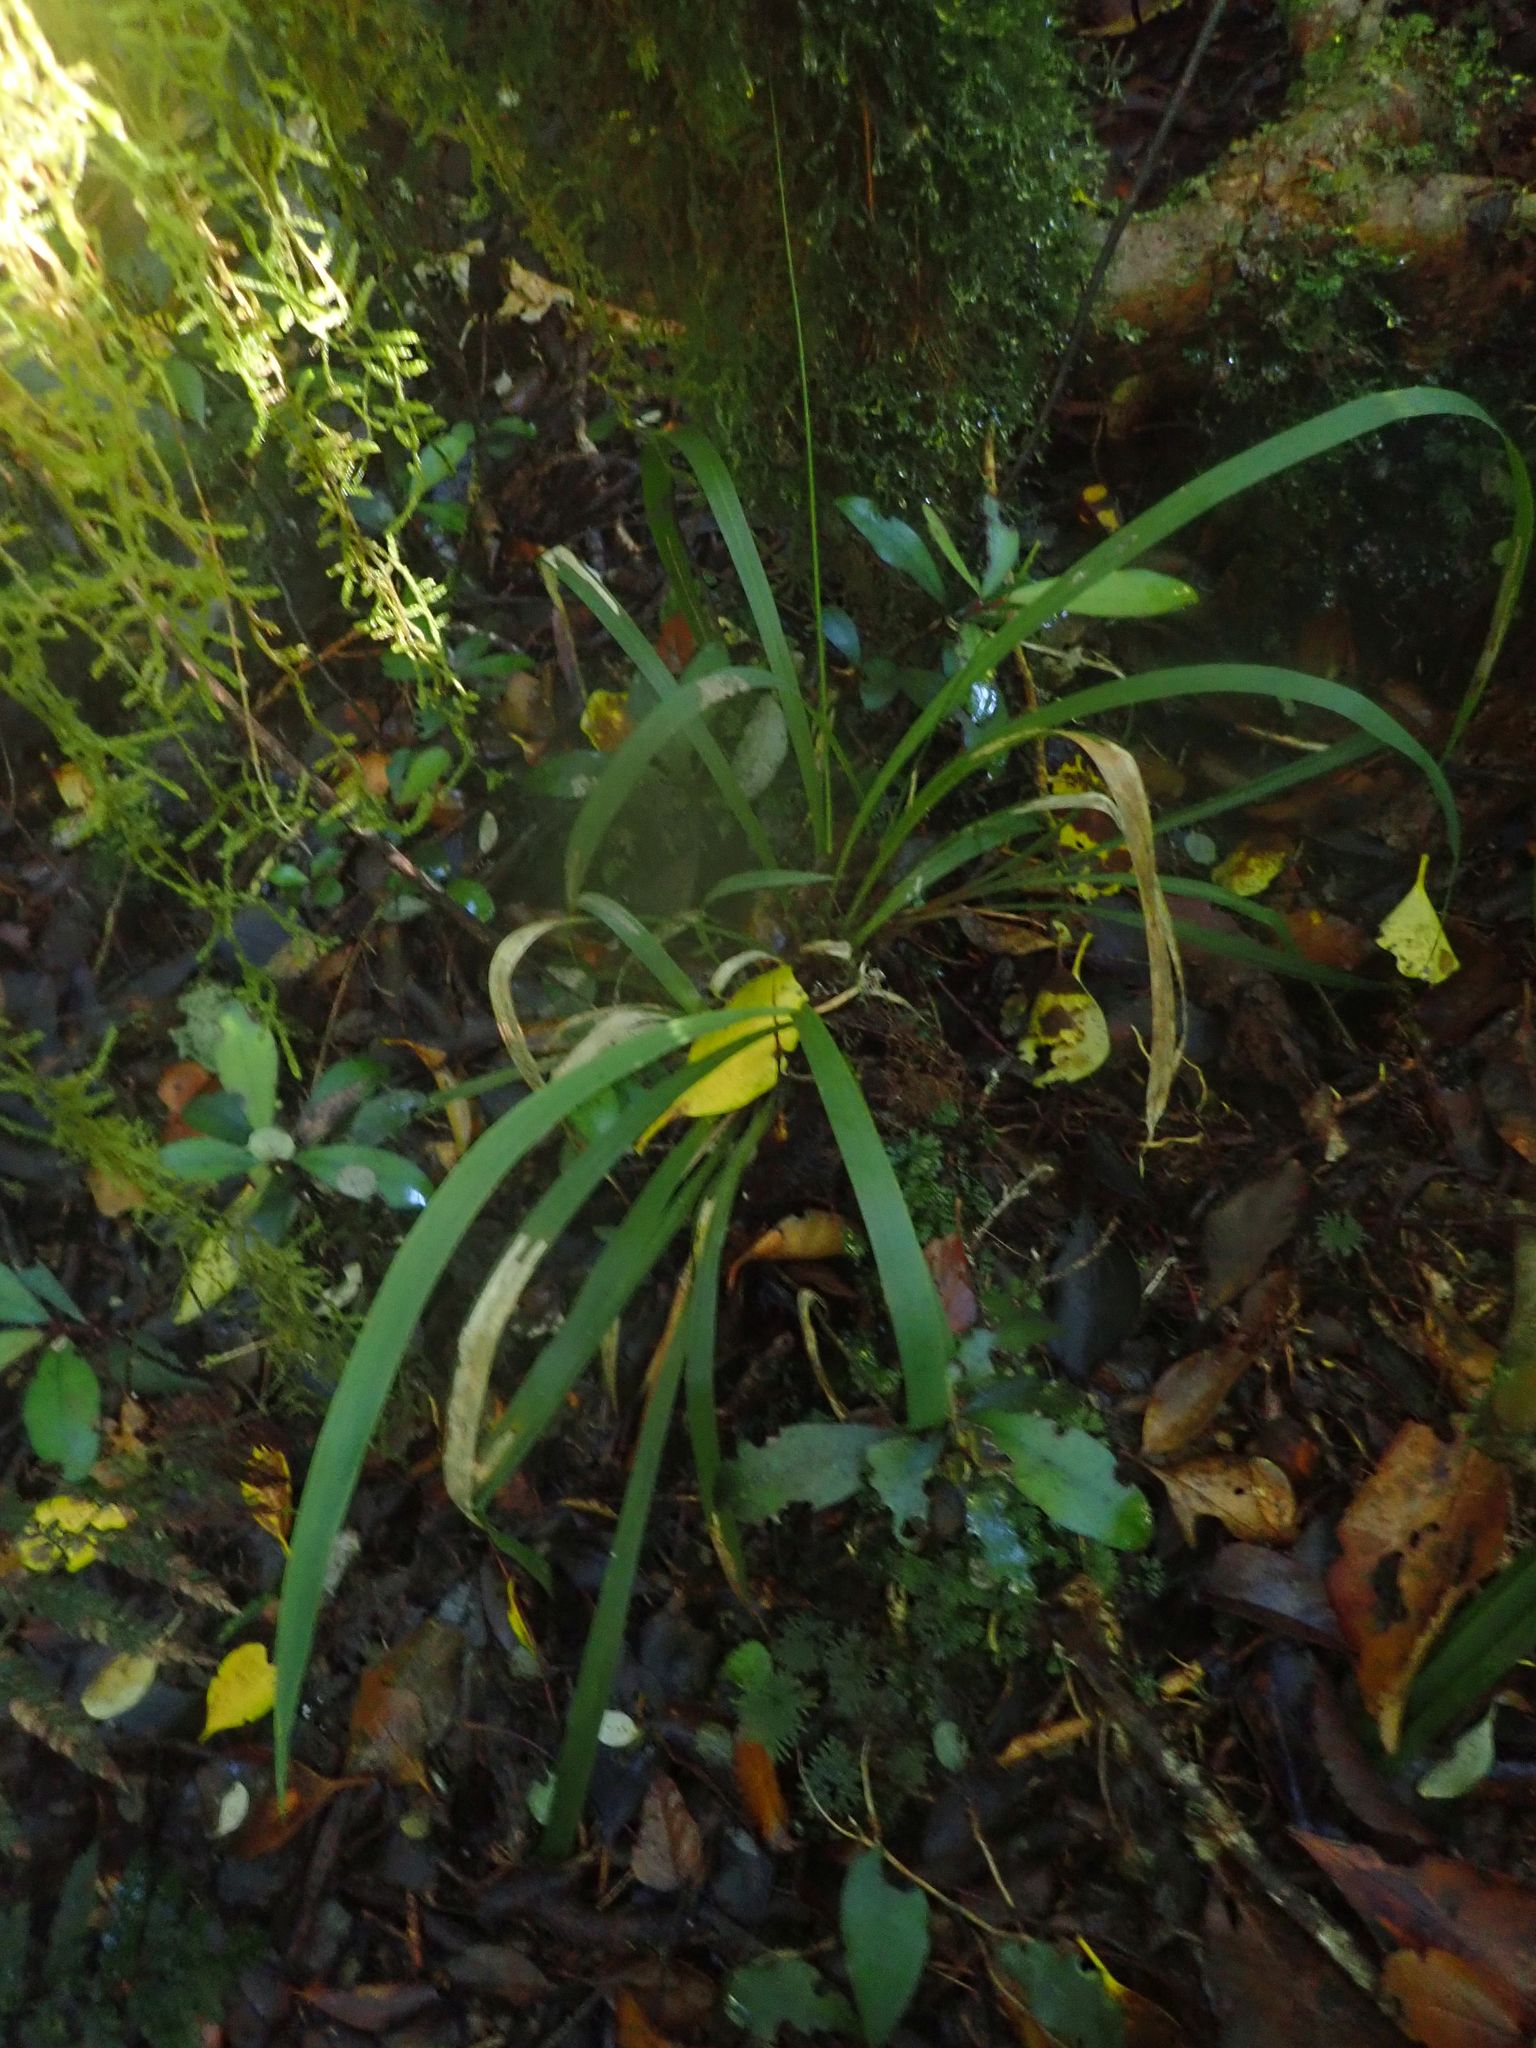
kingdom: Plantae
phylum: Tracheophyta
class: Liliopsida
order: Poales
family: Poaceae
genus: Ehrharta
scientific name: Ehrharta diplax
